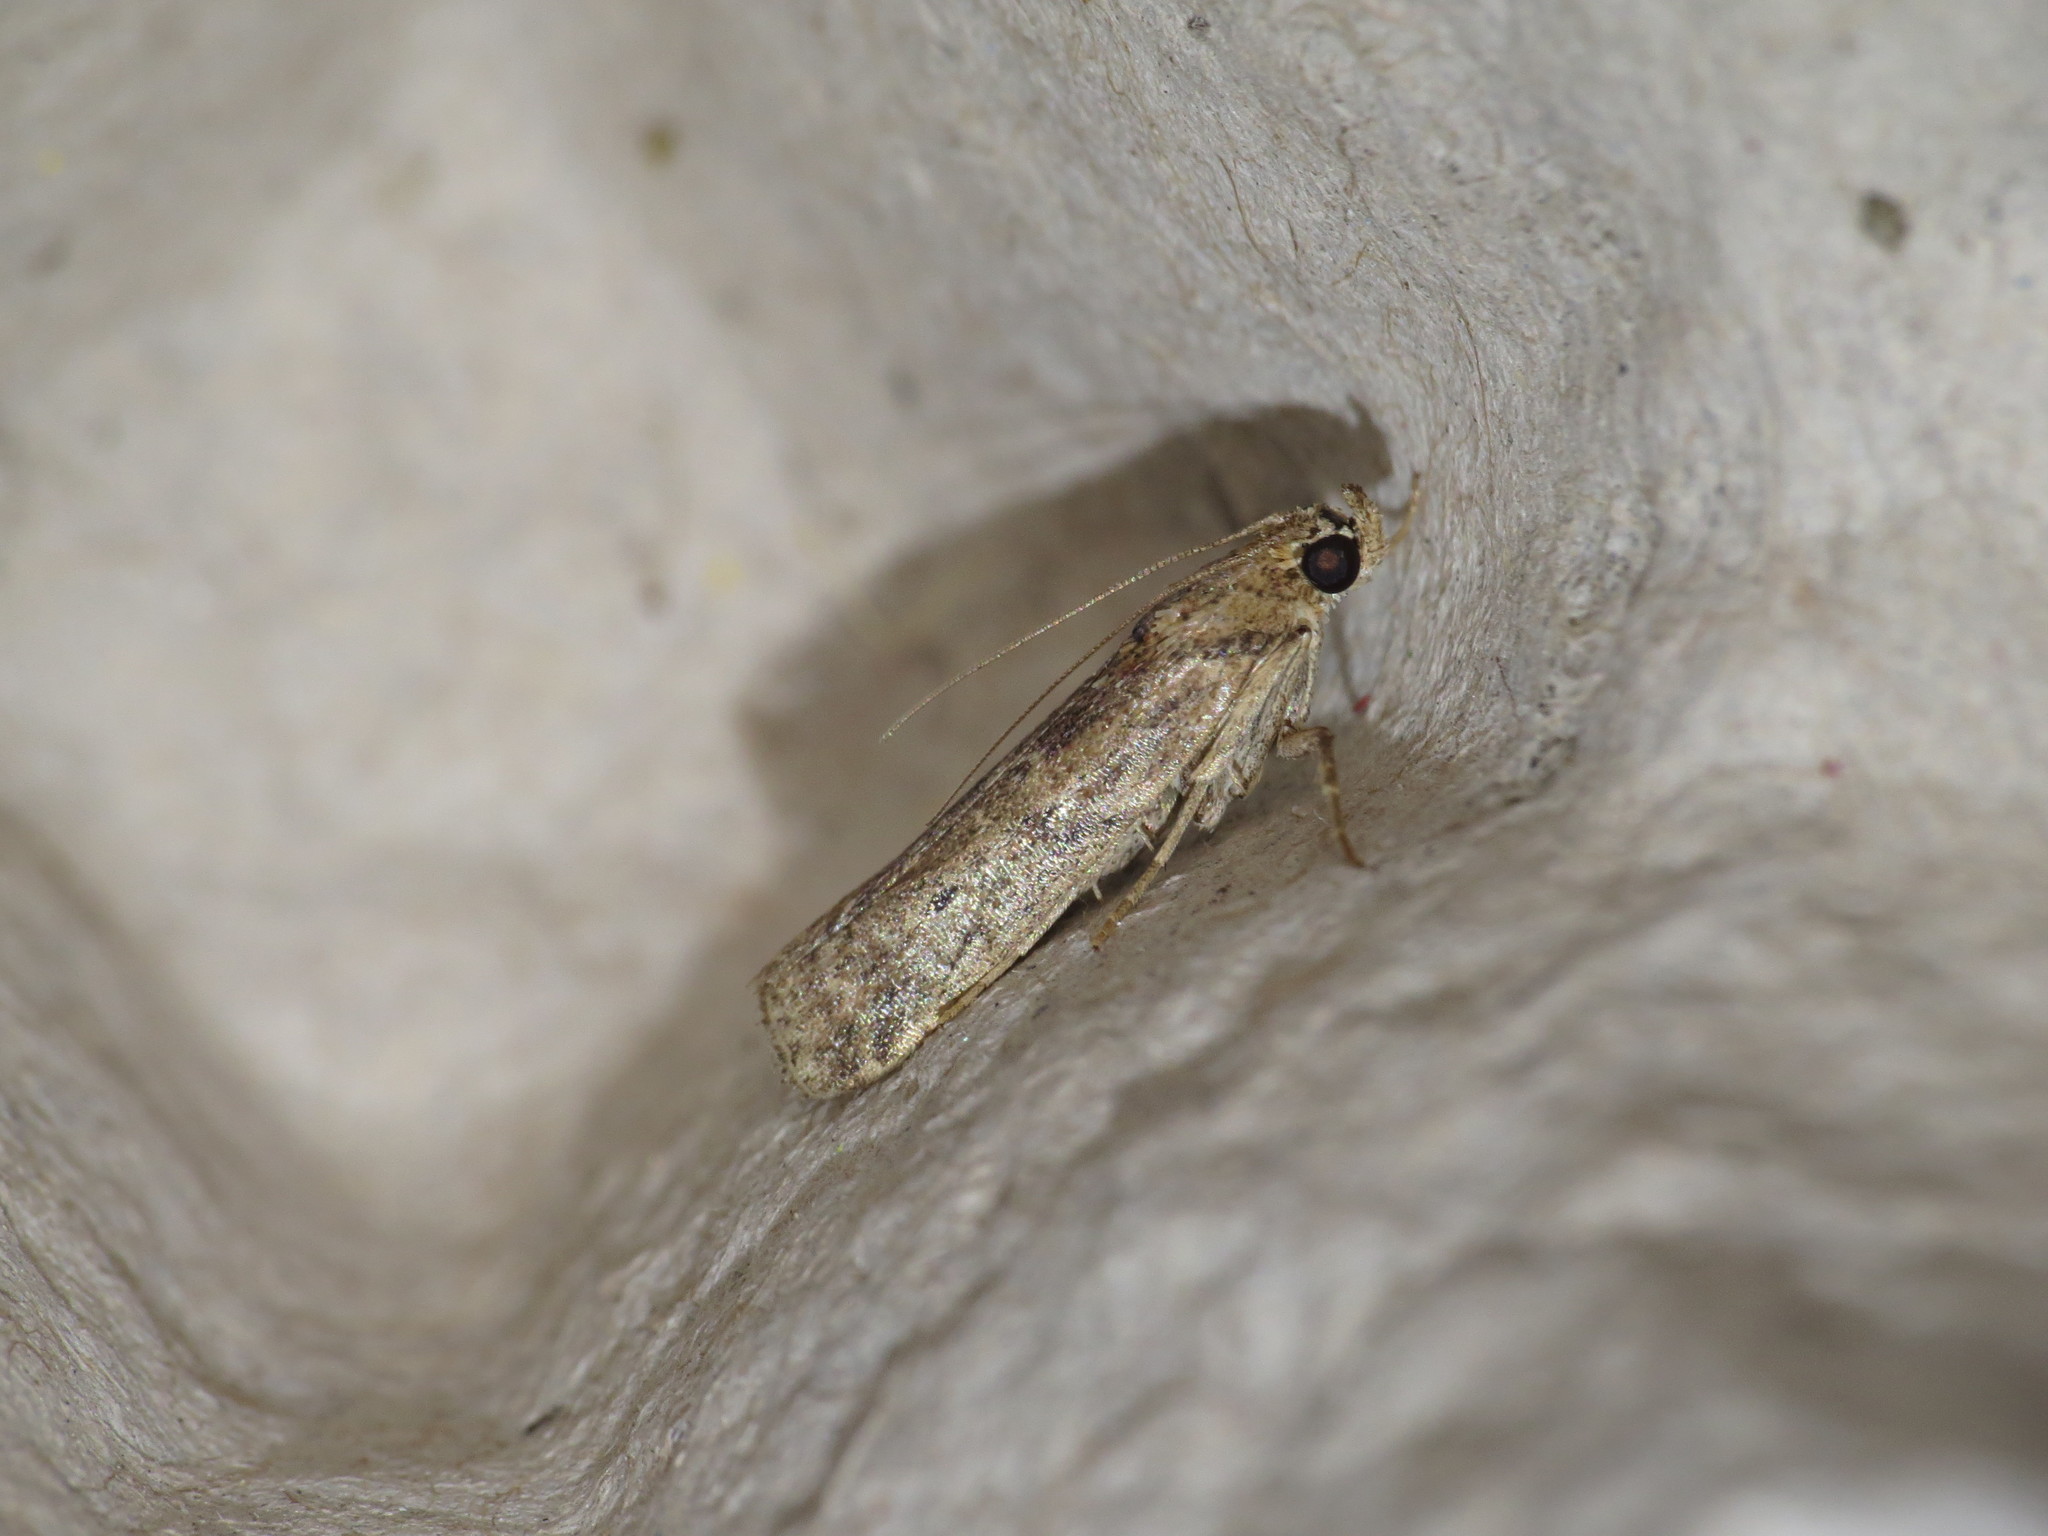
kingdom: Animalia
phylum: Arthropoda
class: Insecta
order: Lepidoptera
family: Pyralidae
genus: Meyrickiella
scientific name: Meyrickiella homosema
